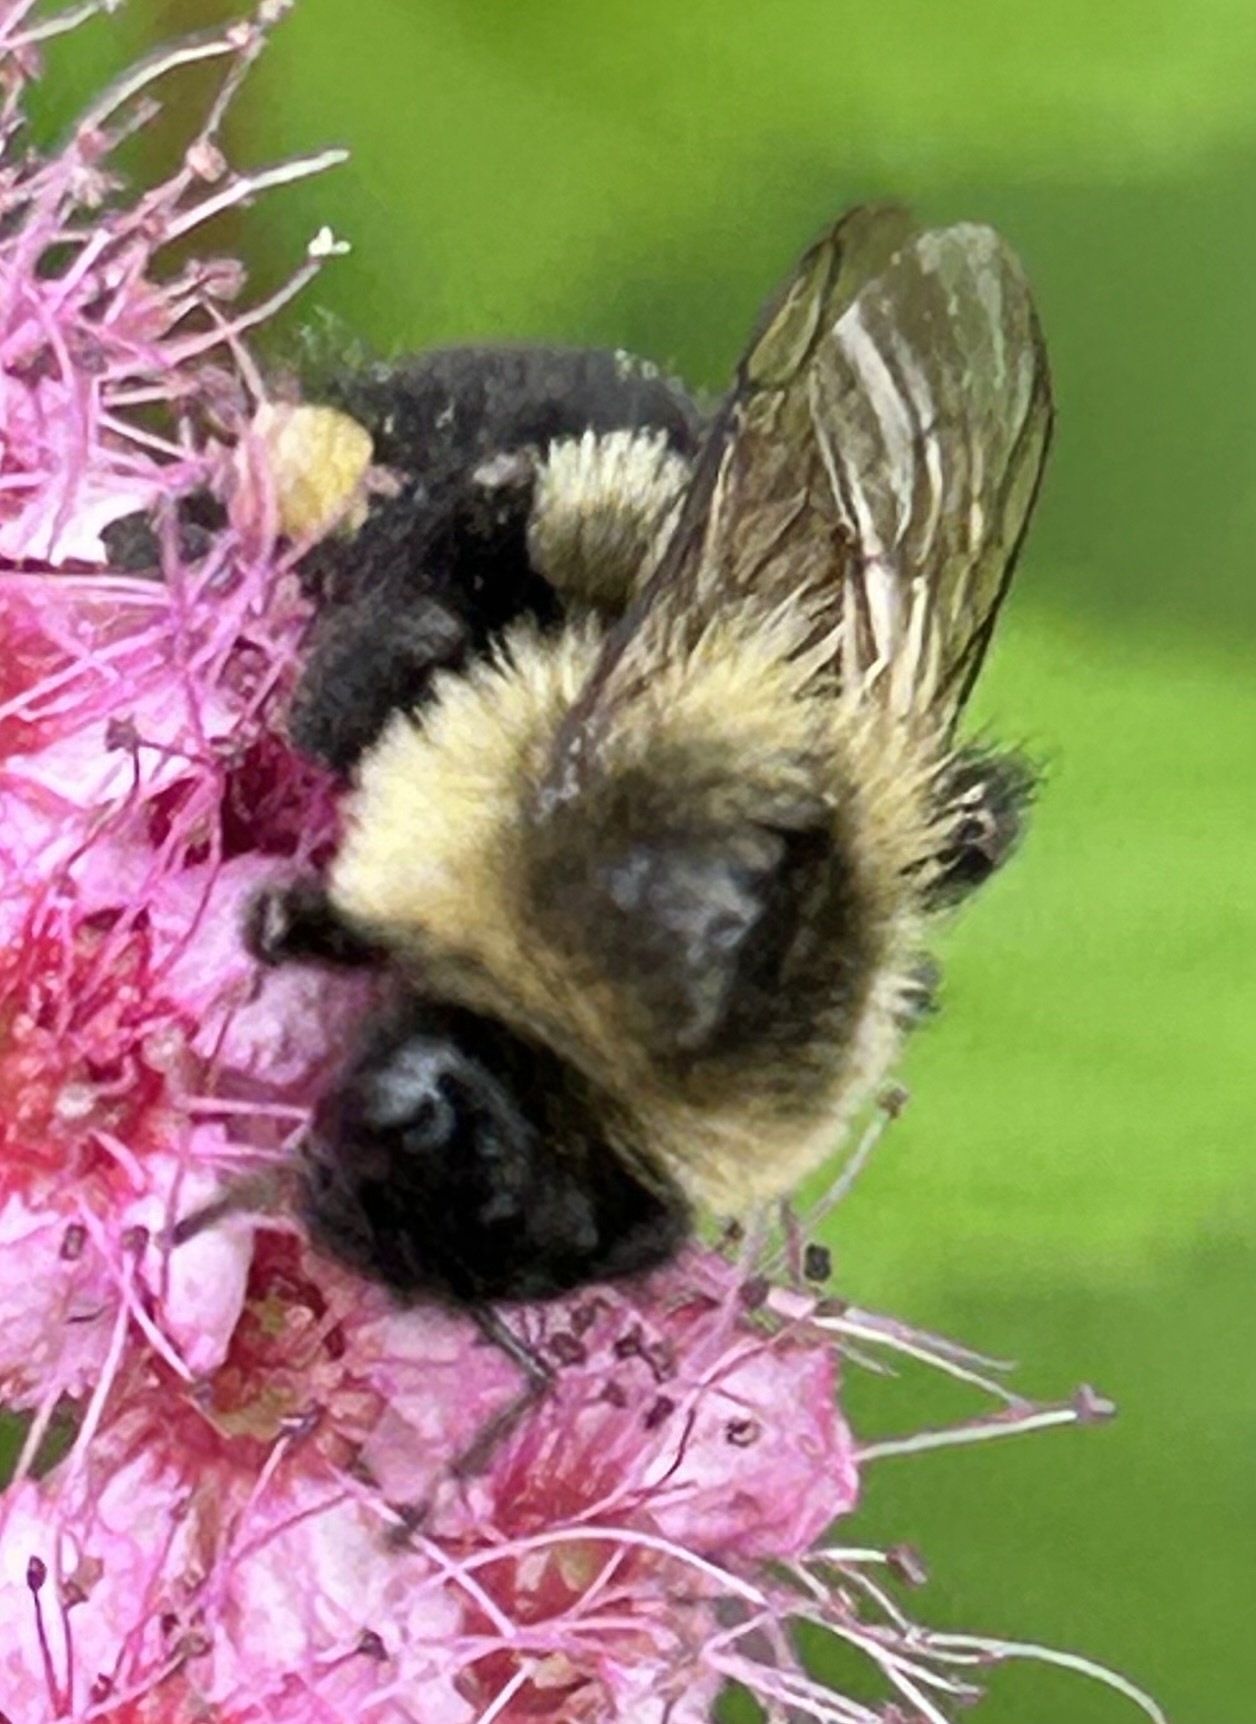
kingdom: Animalia
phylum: Arthropoda
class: Insecta
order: Hymenoptera
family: Apidae
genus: Bombus
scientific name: Bombus impatiens
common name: Common eastern bumble bee
